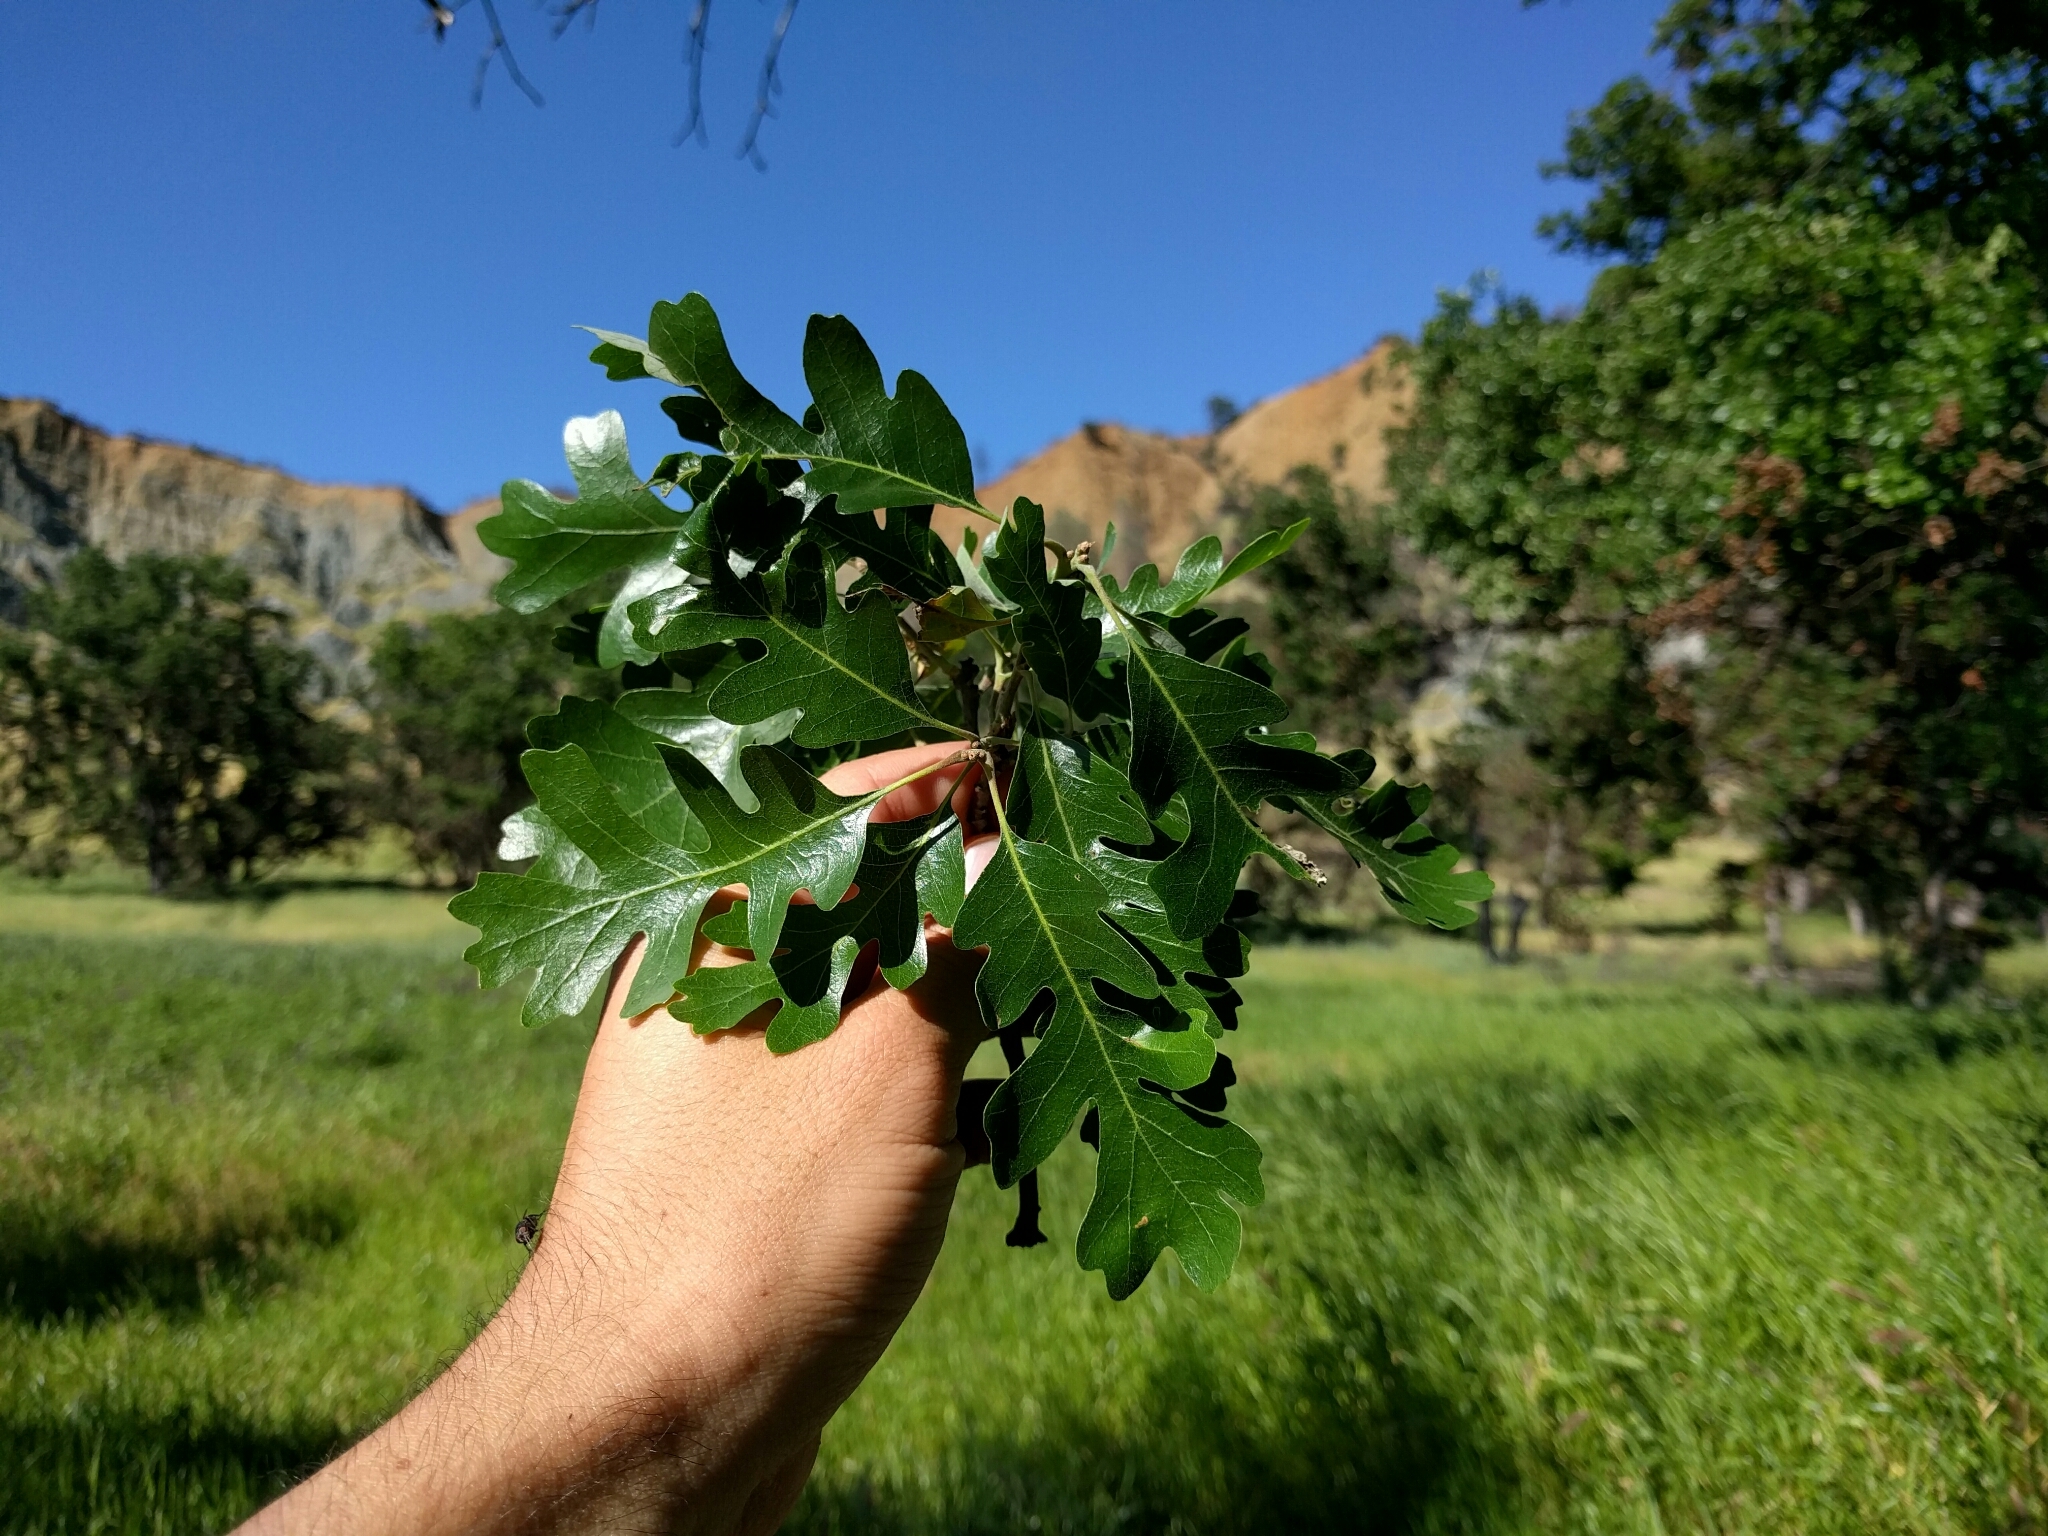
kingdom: Plantae
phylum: Tracheophyta
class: Magnoliopsida
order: Fagales
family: Fagaceae
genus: Quercus
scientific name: Quercus lobata
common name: Valley oak
